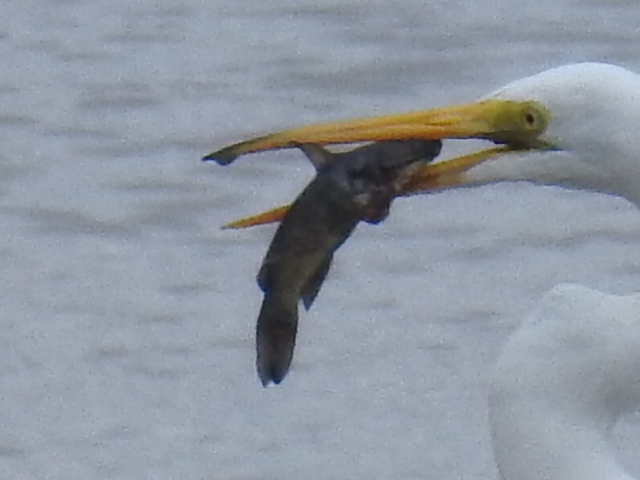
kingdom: Animalia
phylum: Chordata
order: Siluriformes
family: Ictaluridae
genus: Ameiurus
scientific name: Ameiurus melas
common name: Black bullhead
